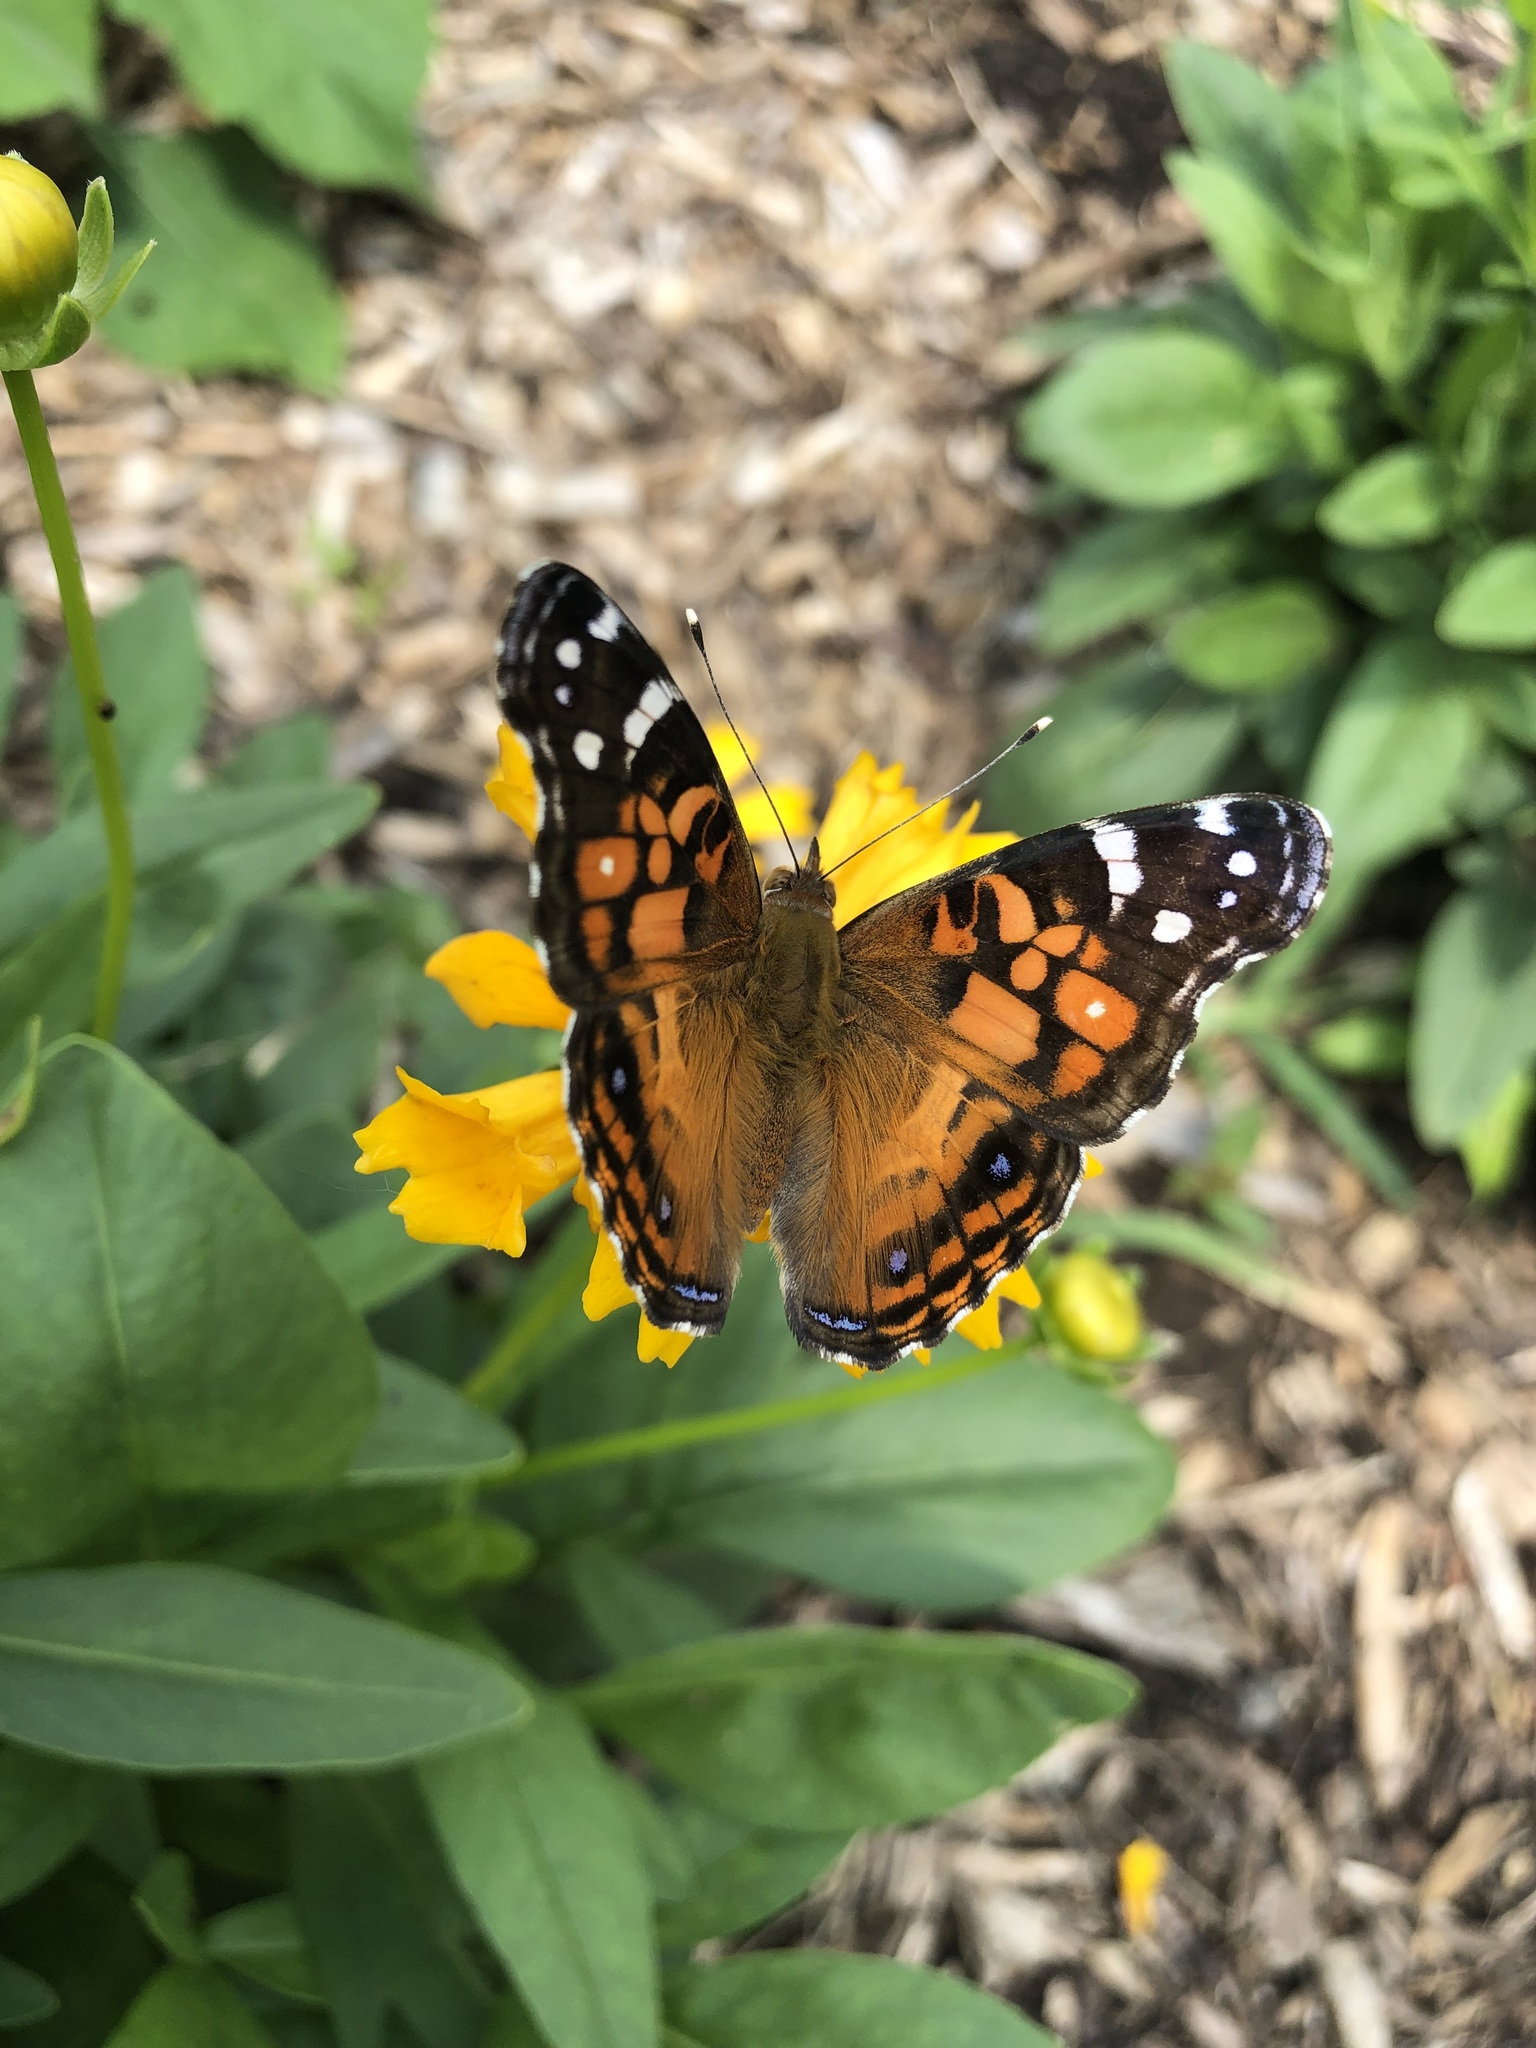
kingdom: Animalia
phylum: Arthropoda
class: Insecta
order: Lepidoptera
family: Nymphalidae
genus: Vanessa
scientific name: Vanessa virginiensis
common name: American lady
